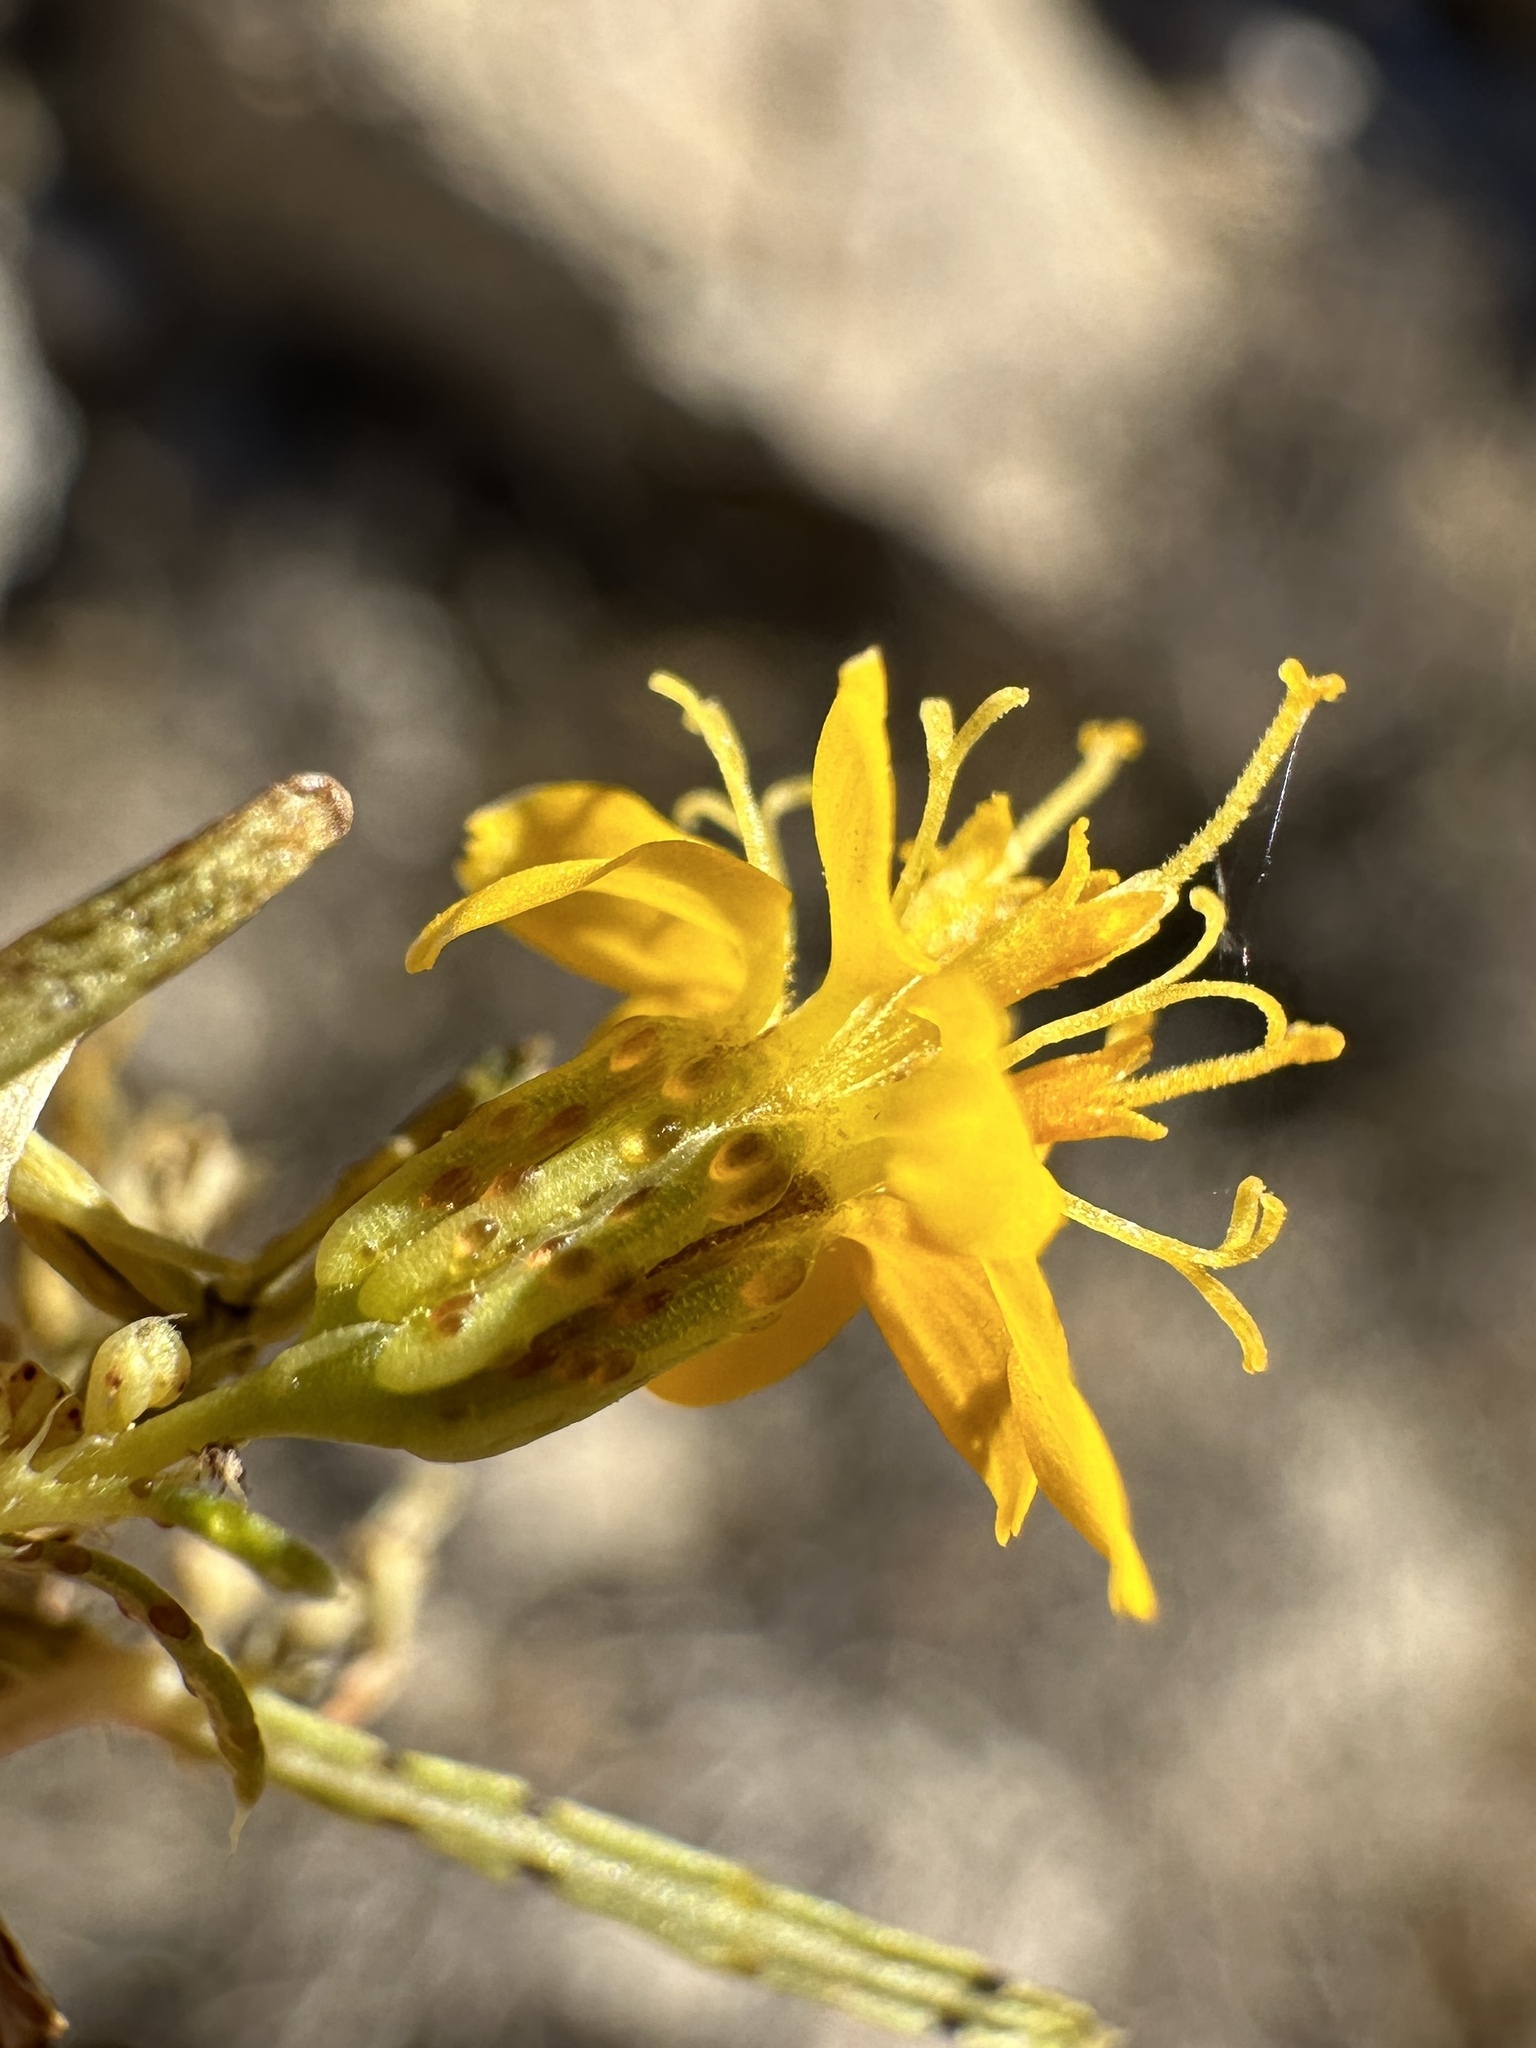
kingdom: Plantae
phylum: Tracheophyta
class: Magnoliopsida
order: Asterales
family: Asteraceae
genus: Pectis
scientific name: Pectis papposa
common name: Many-bristle chinchweed
